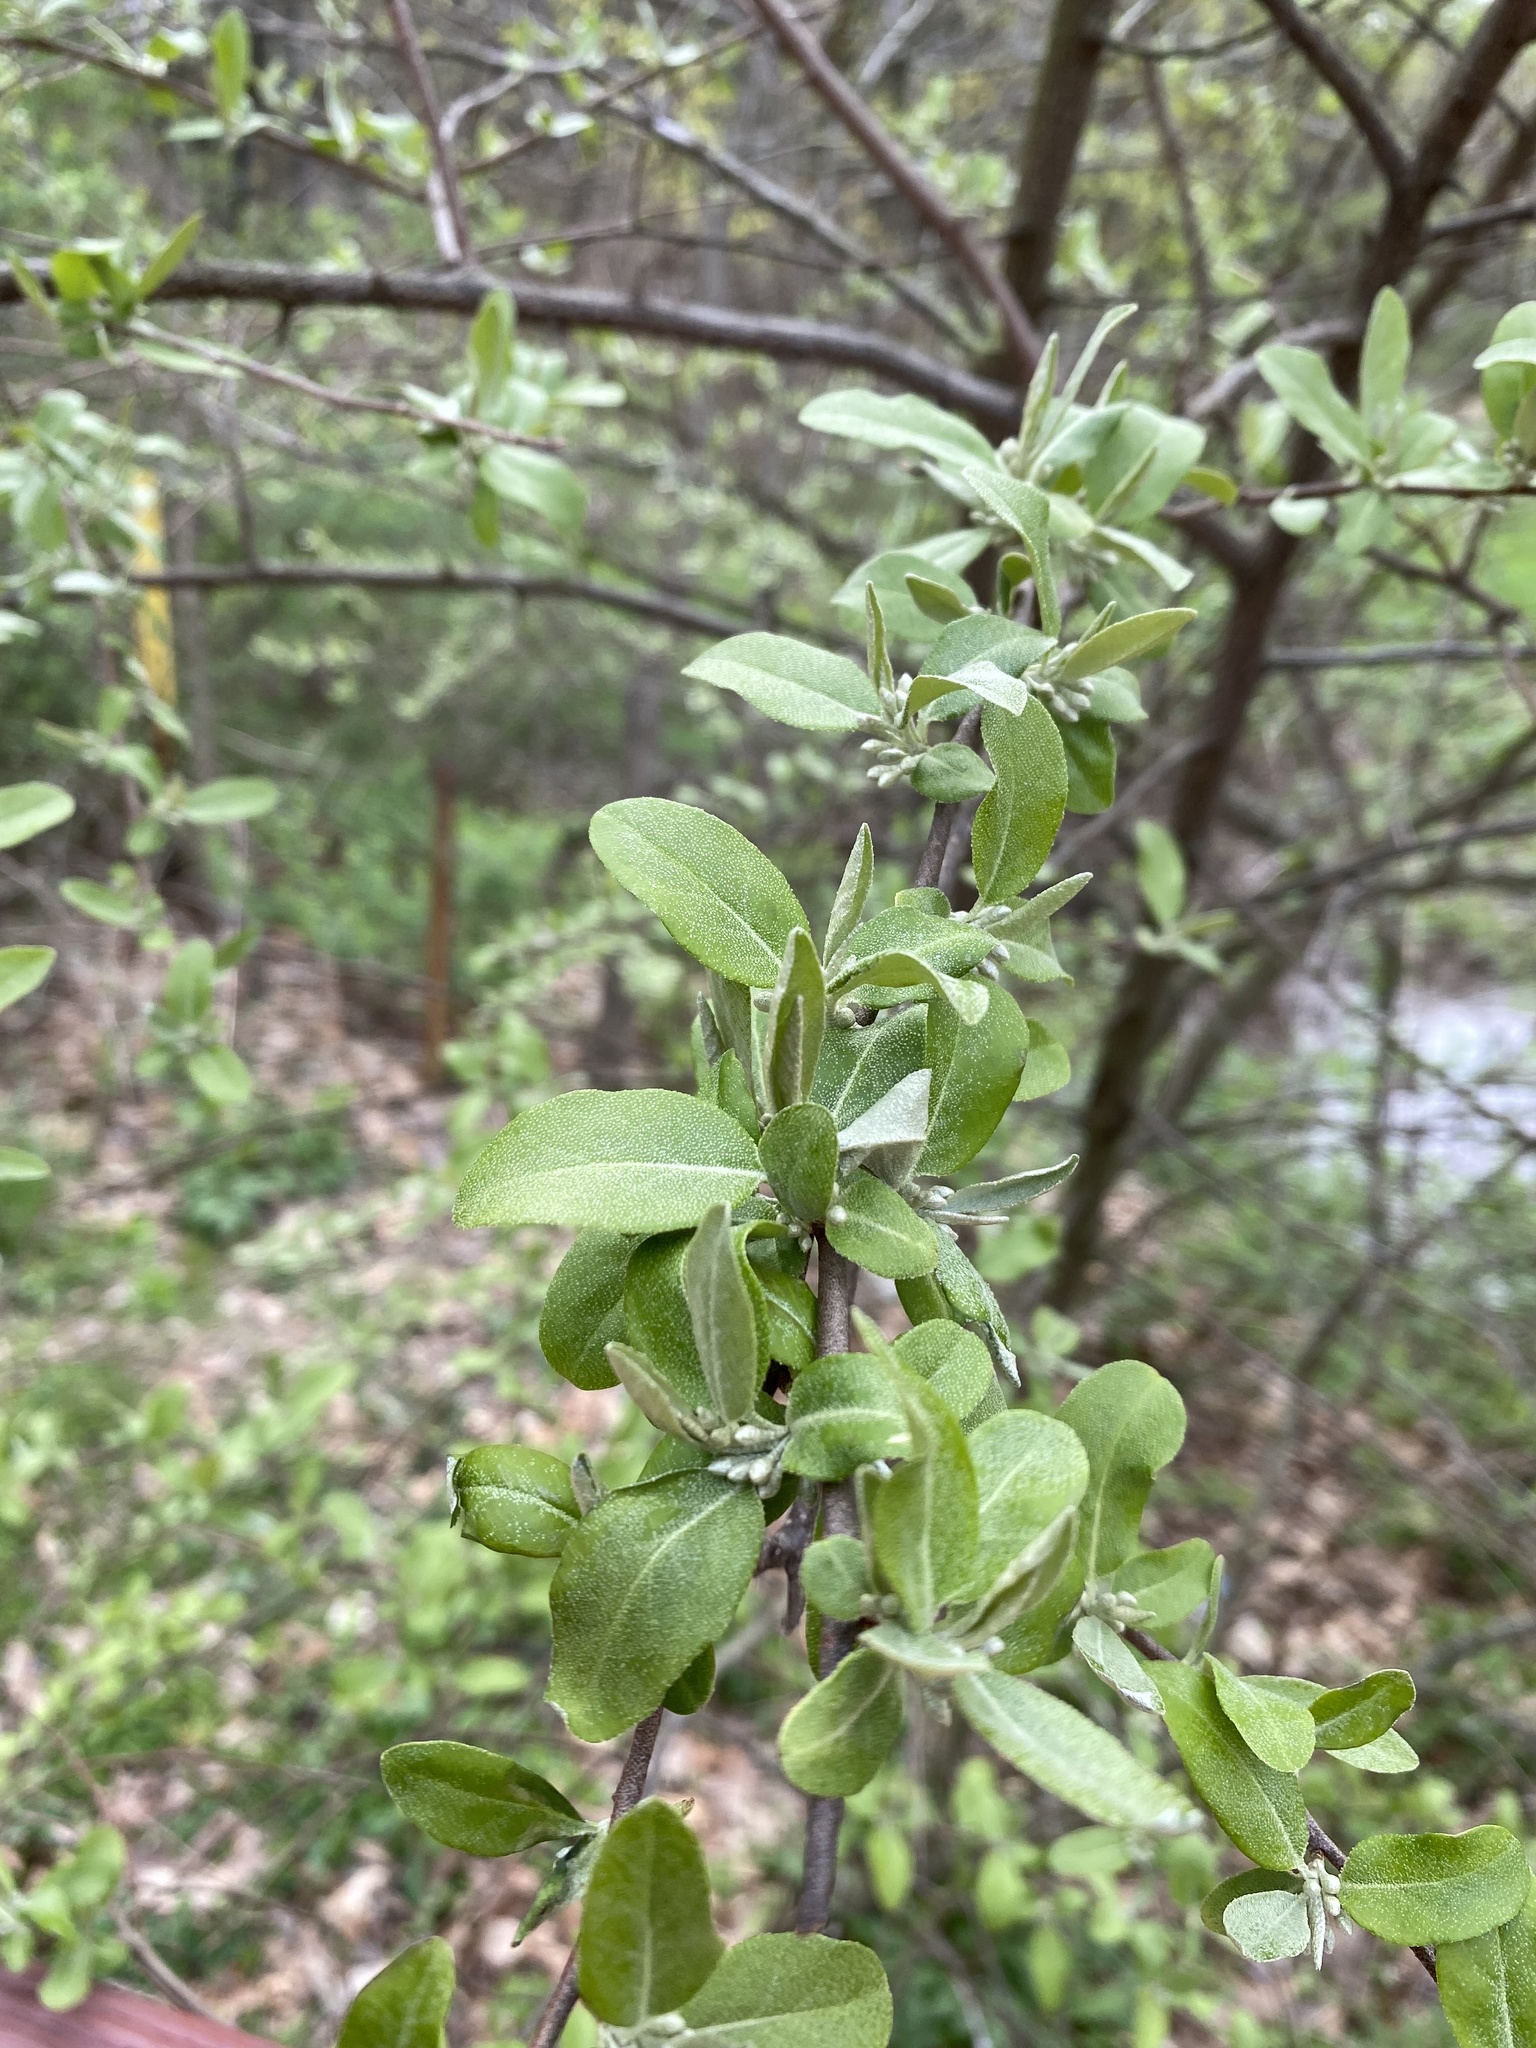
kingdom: Plantae
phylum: Tracheophyta
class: Magnoliopsida
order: Rosales
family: Elaeagnaceae
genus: Elaeagnus
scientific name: Elaeagnus umbellata
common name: Autumn olive
